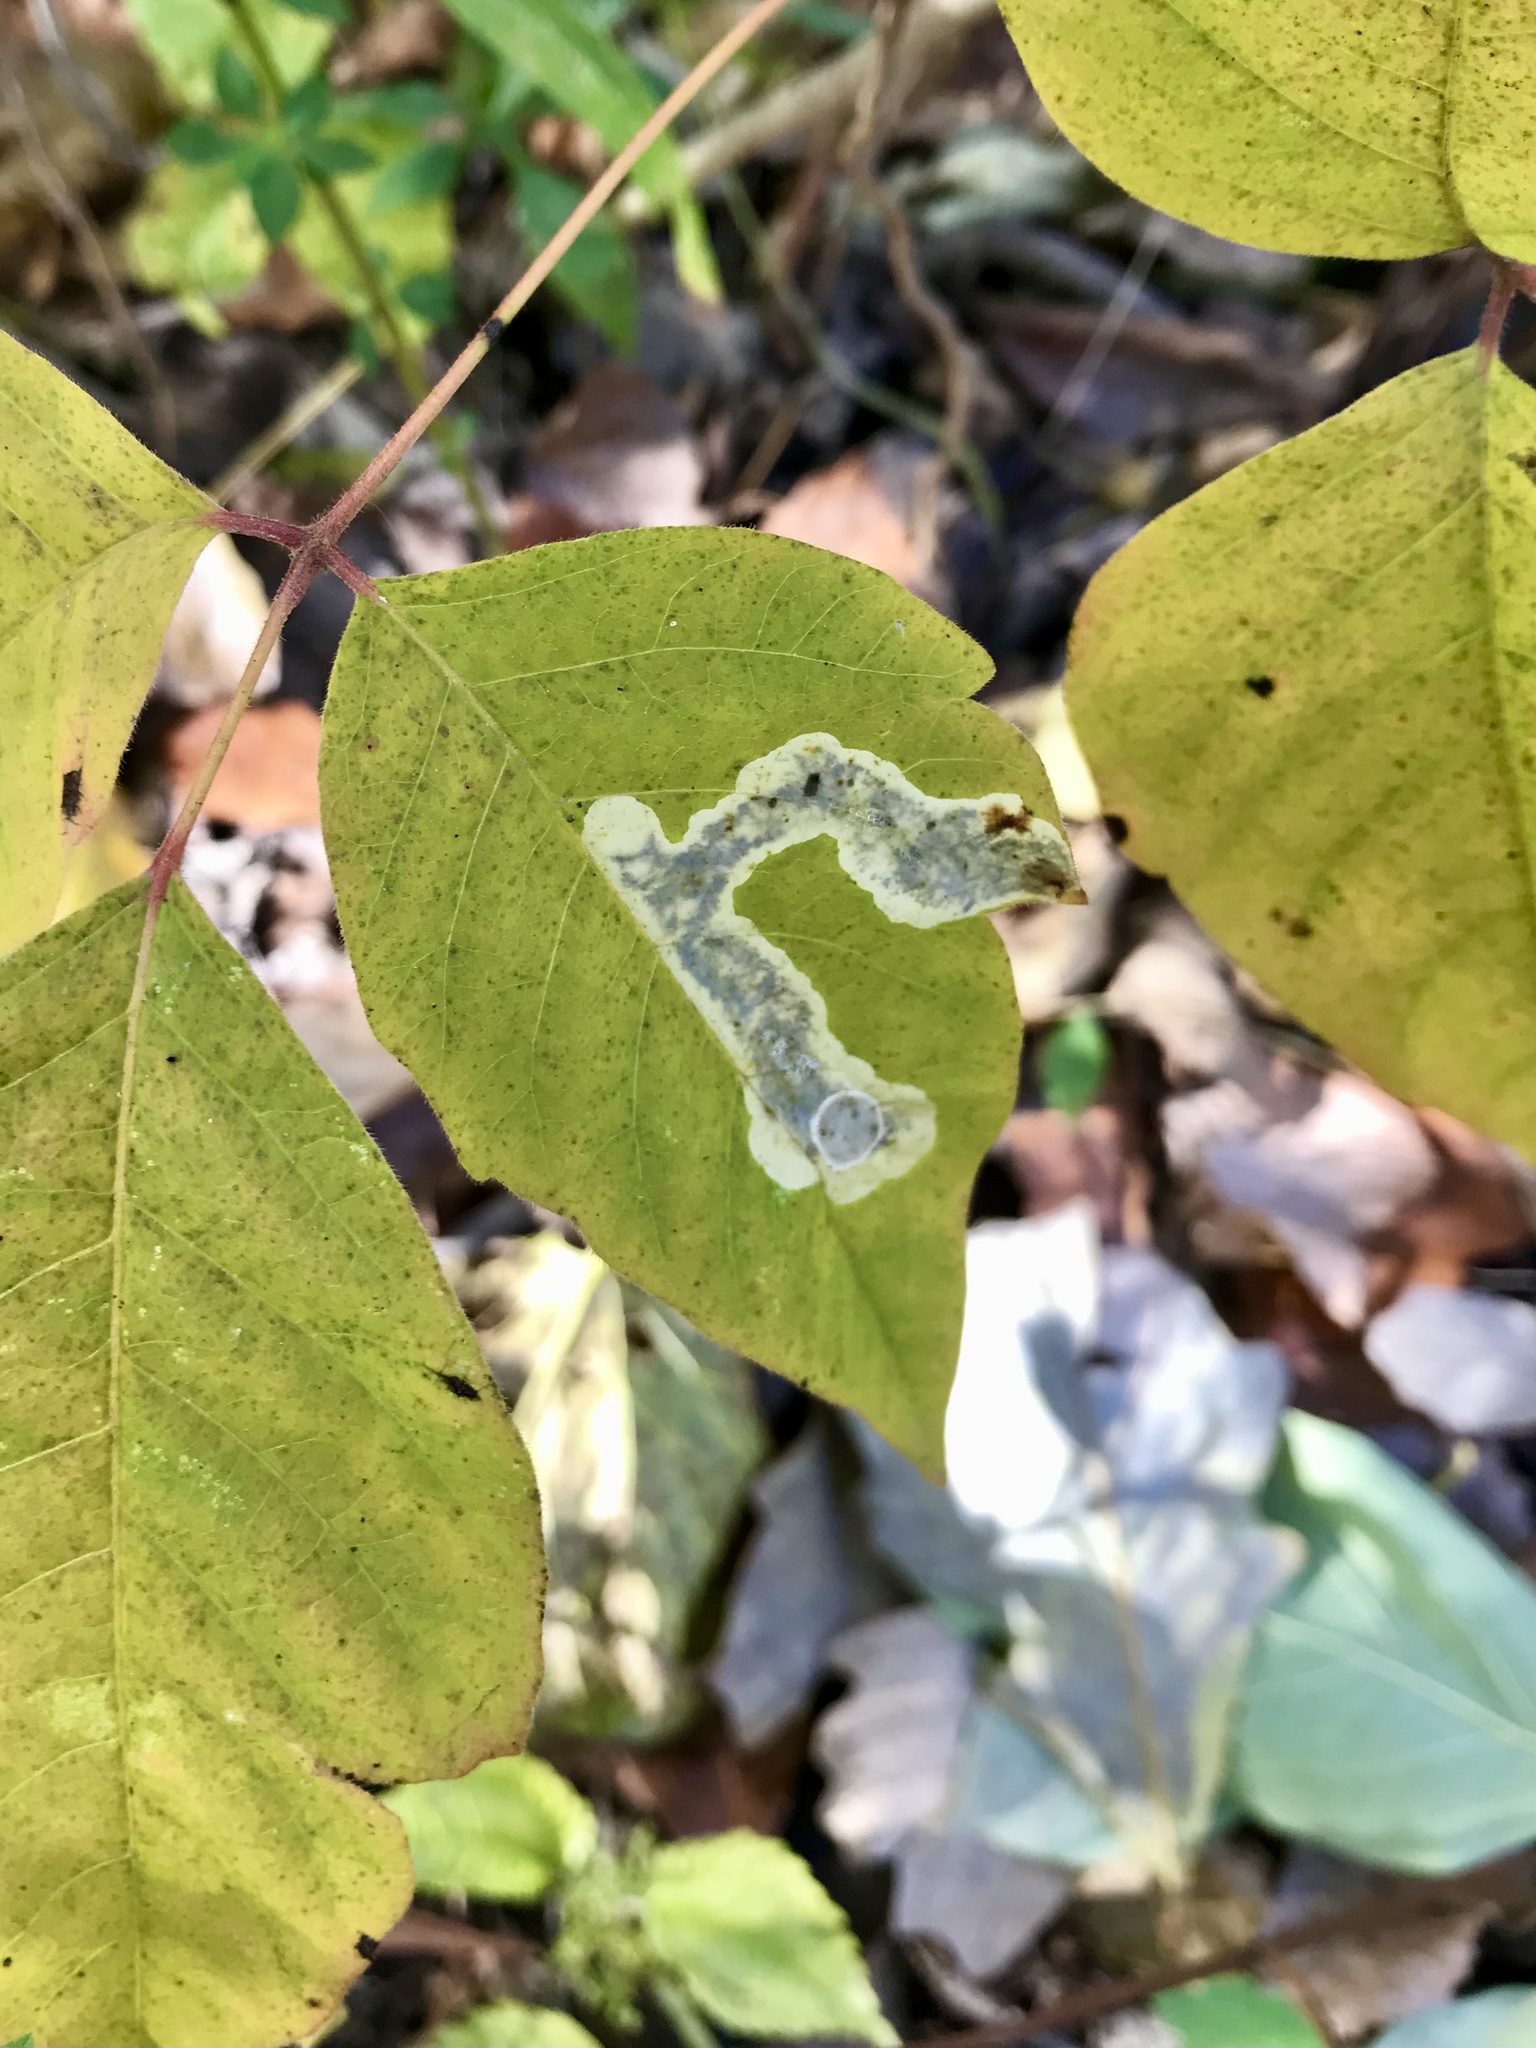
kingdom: Animalia
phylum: Arthropoda
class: Insecta
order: Lepidoptera
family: Gracillariidae
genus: Cameraria
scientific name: Cameraria guttifinitella
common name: Poison ivy leaf-miner moth
